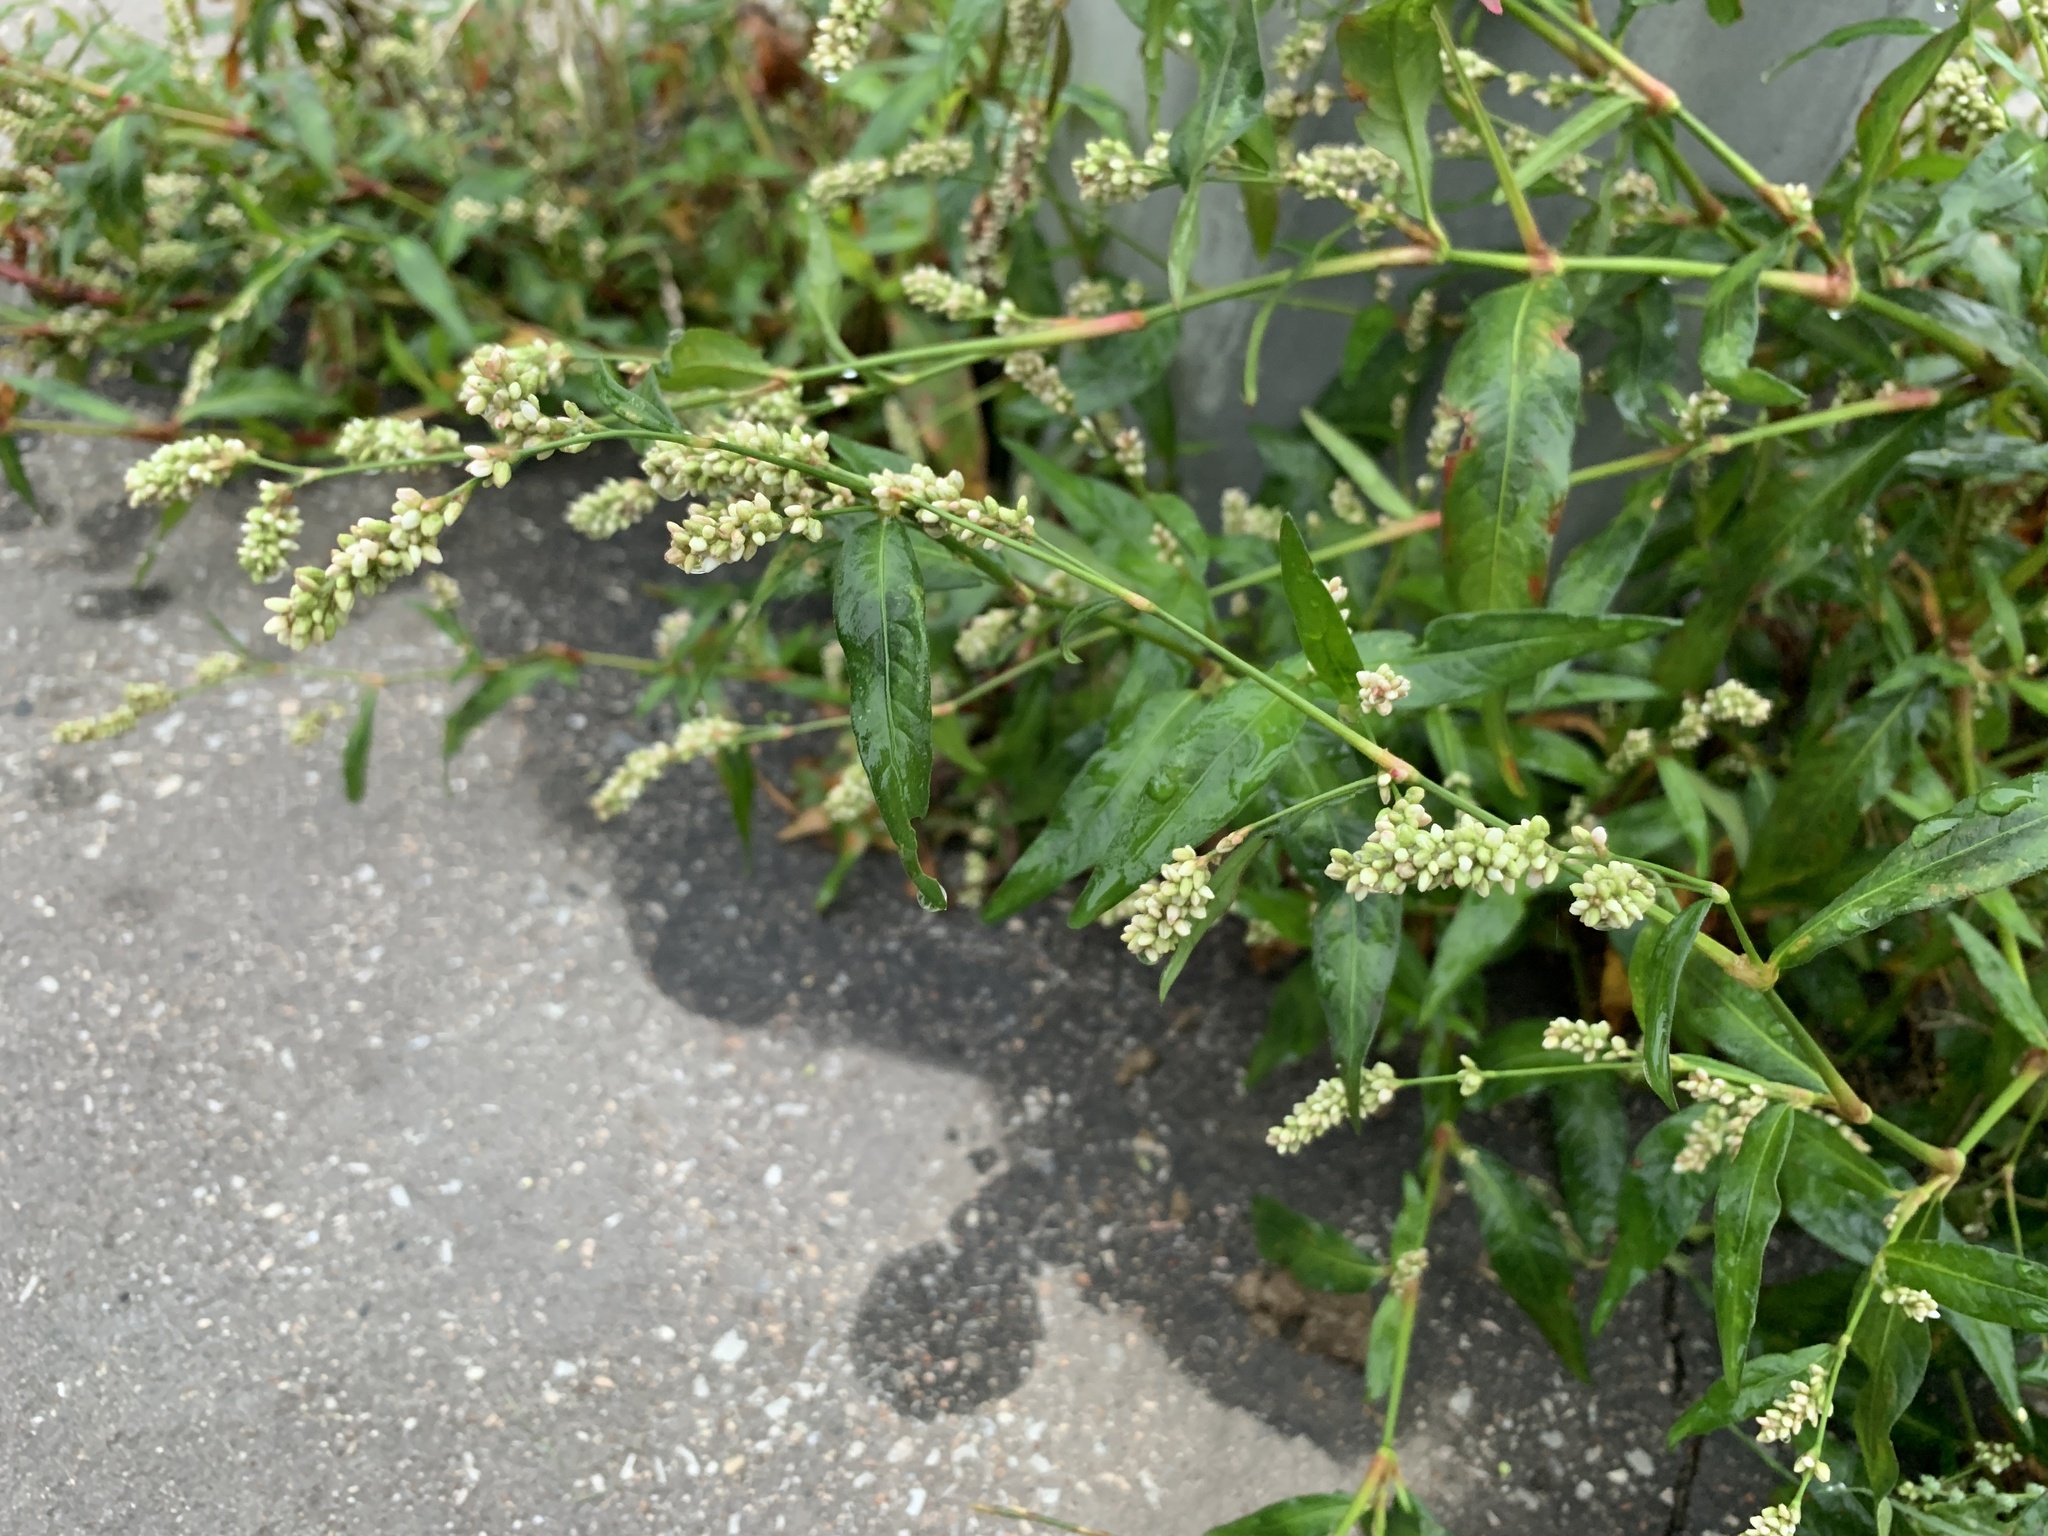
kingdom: Plantae
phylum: Tracheophyta
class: Magnoliopsida
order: Caryophyllales
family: Polygonaceae
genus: Persicaria
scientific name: Persicaria lapathifolia
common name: Curlytop knotweed
